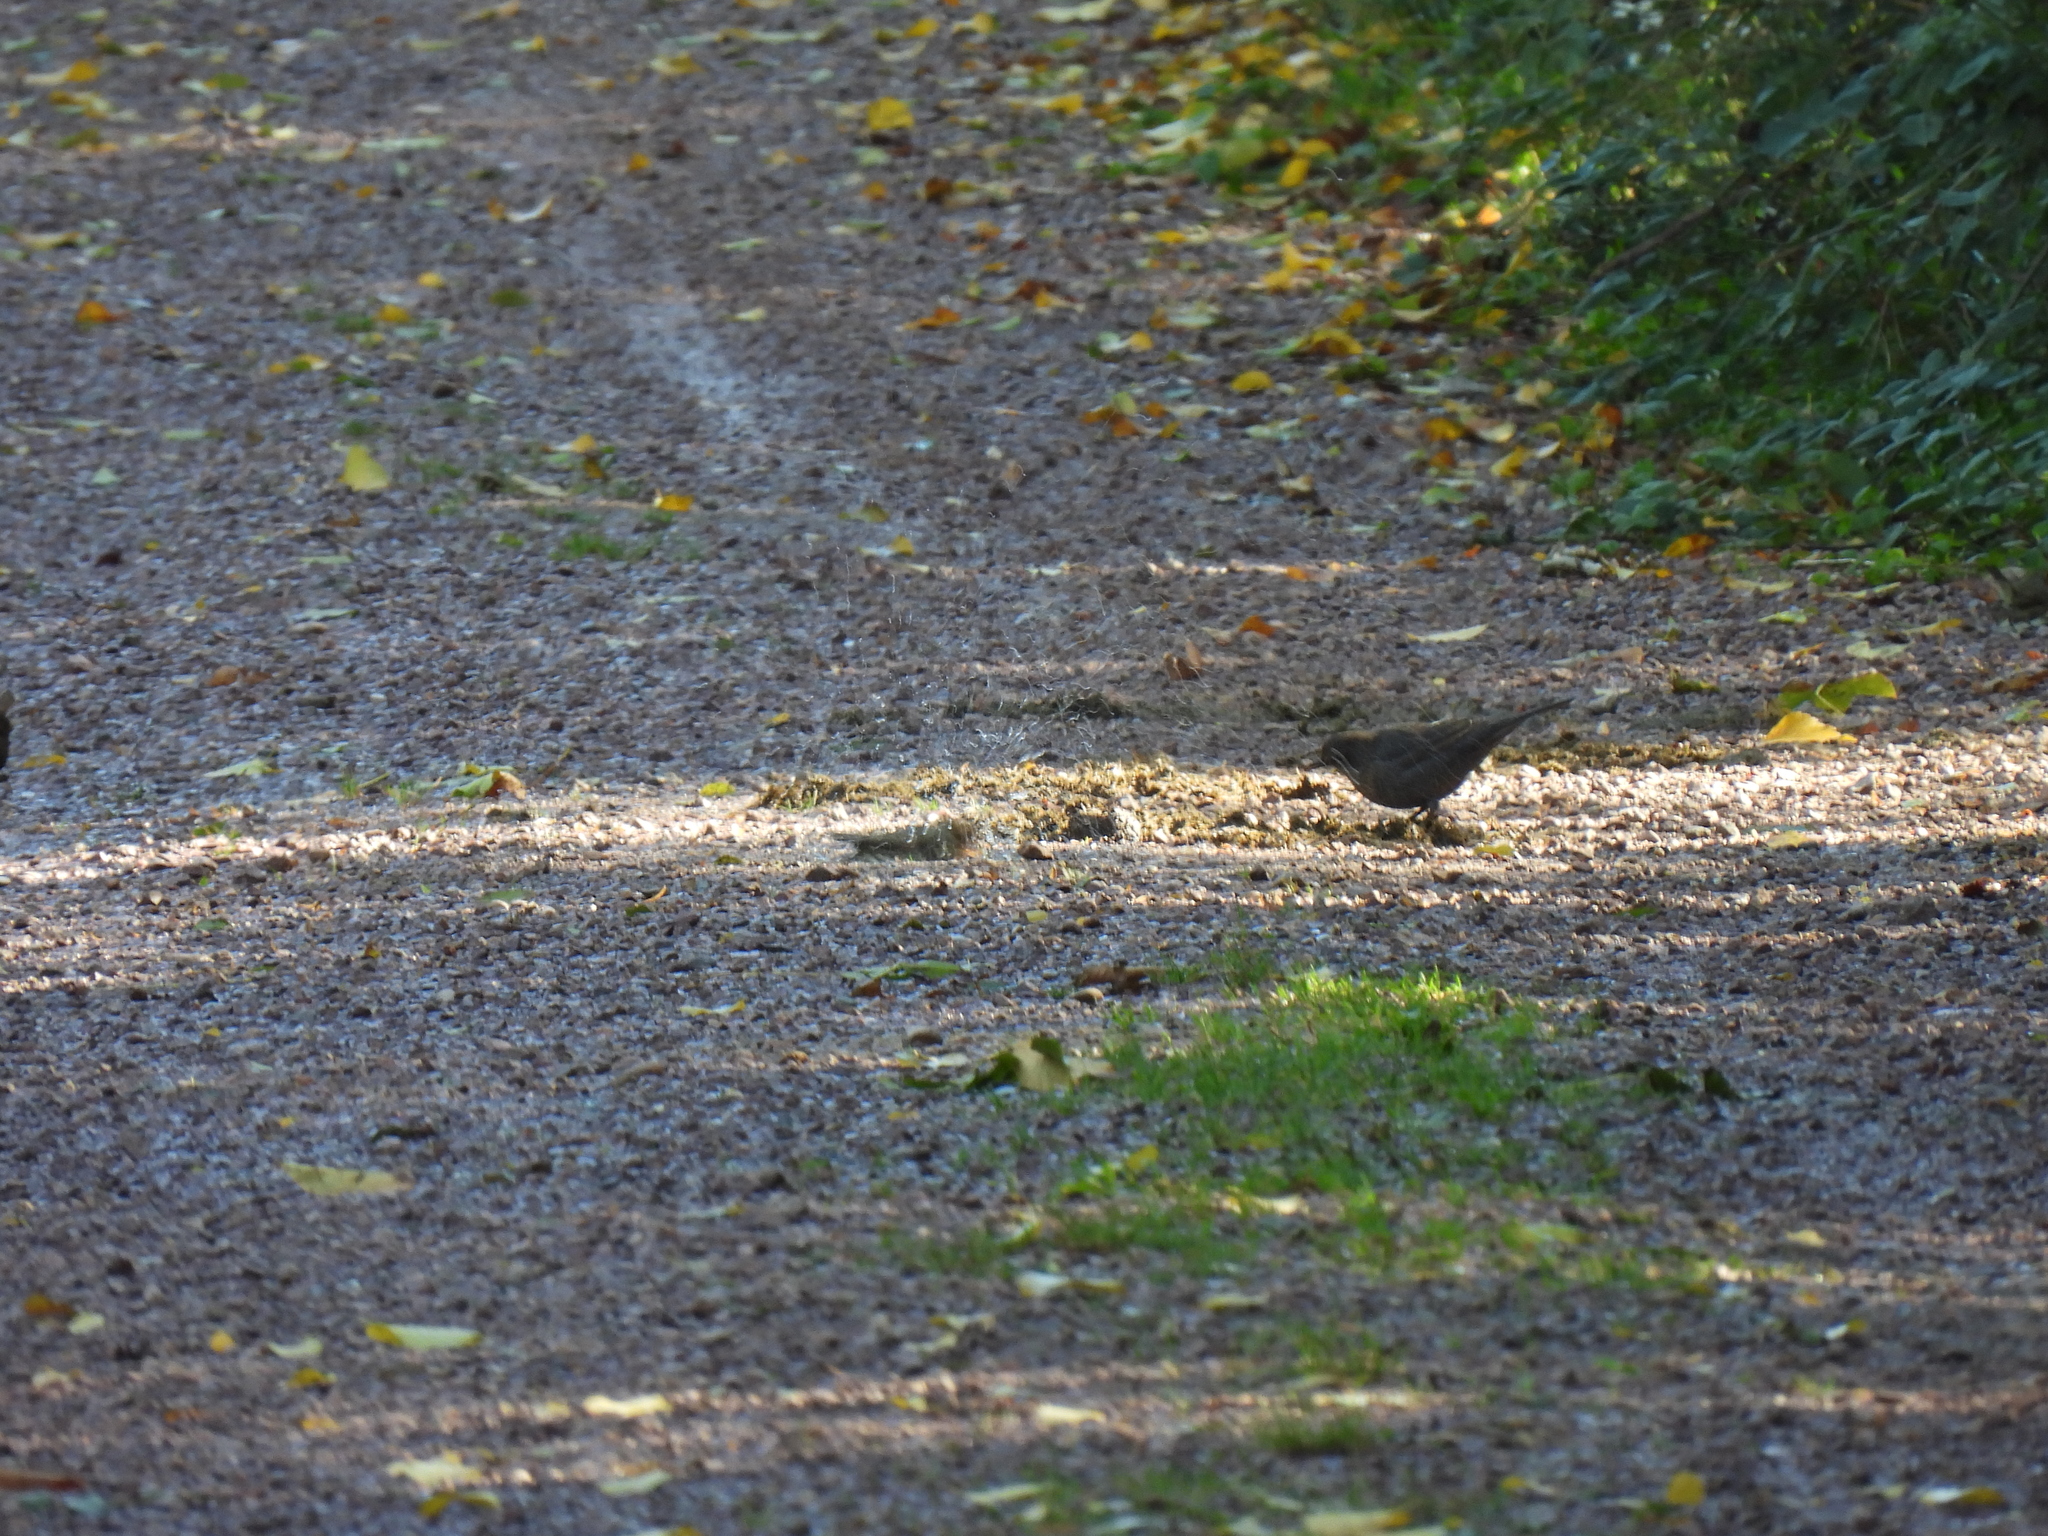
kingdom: Animalia
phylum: Chordata
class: Aves
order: Passeriformes
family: Turdidae
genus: Turdus
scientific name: Turdus merula
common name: Common blackbird
